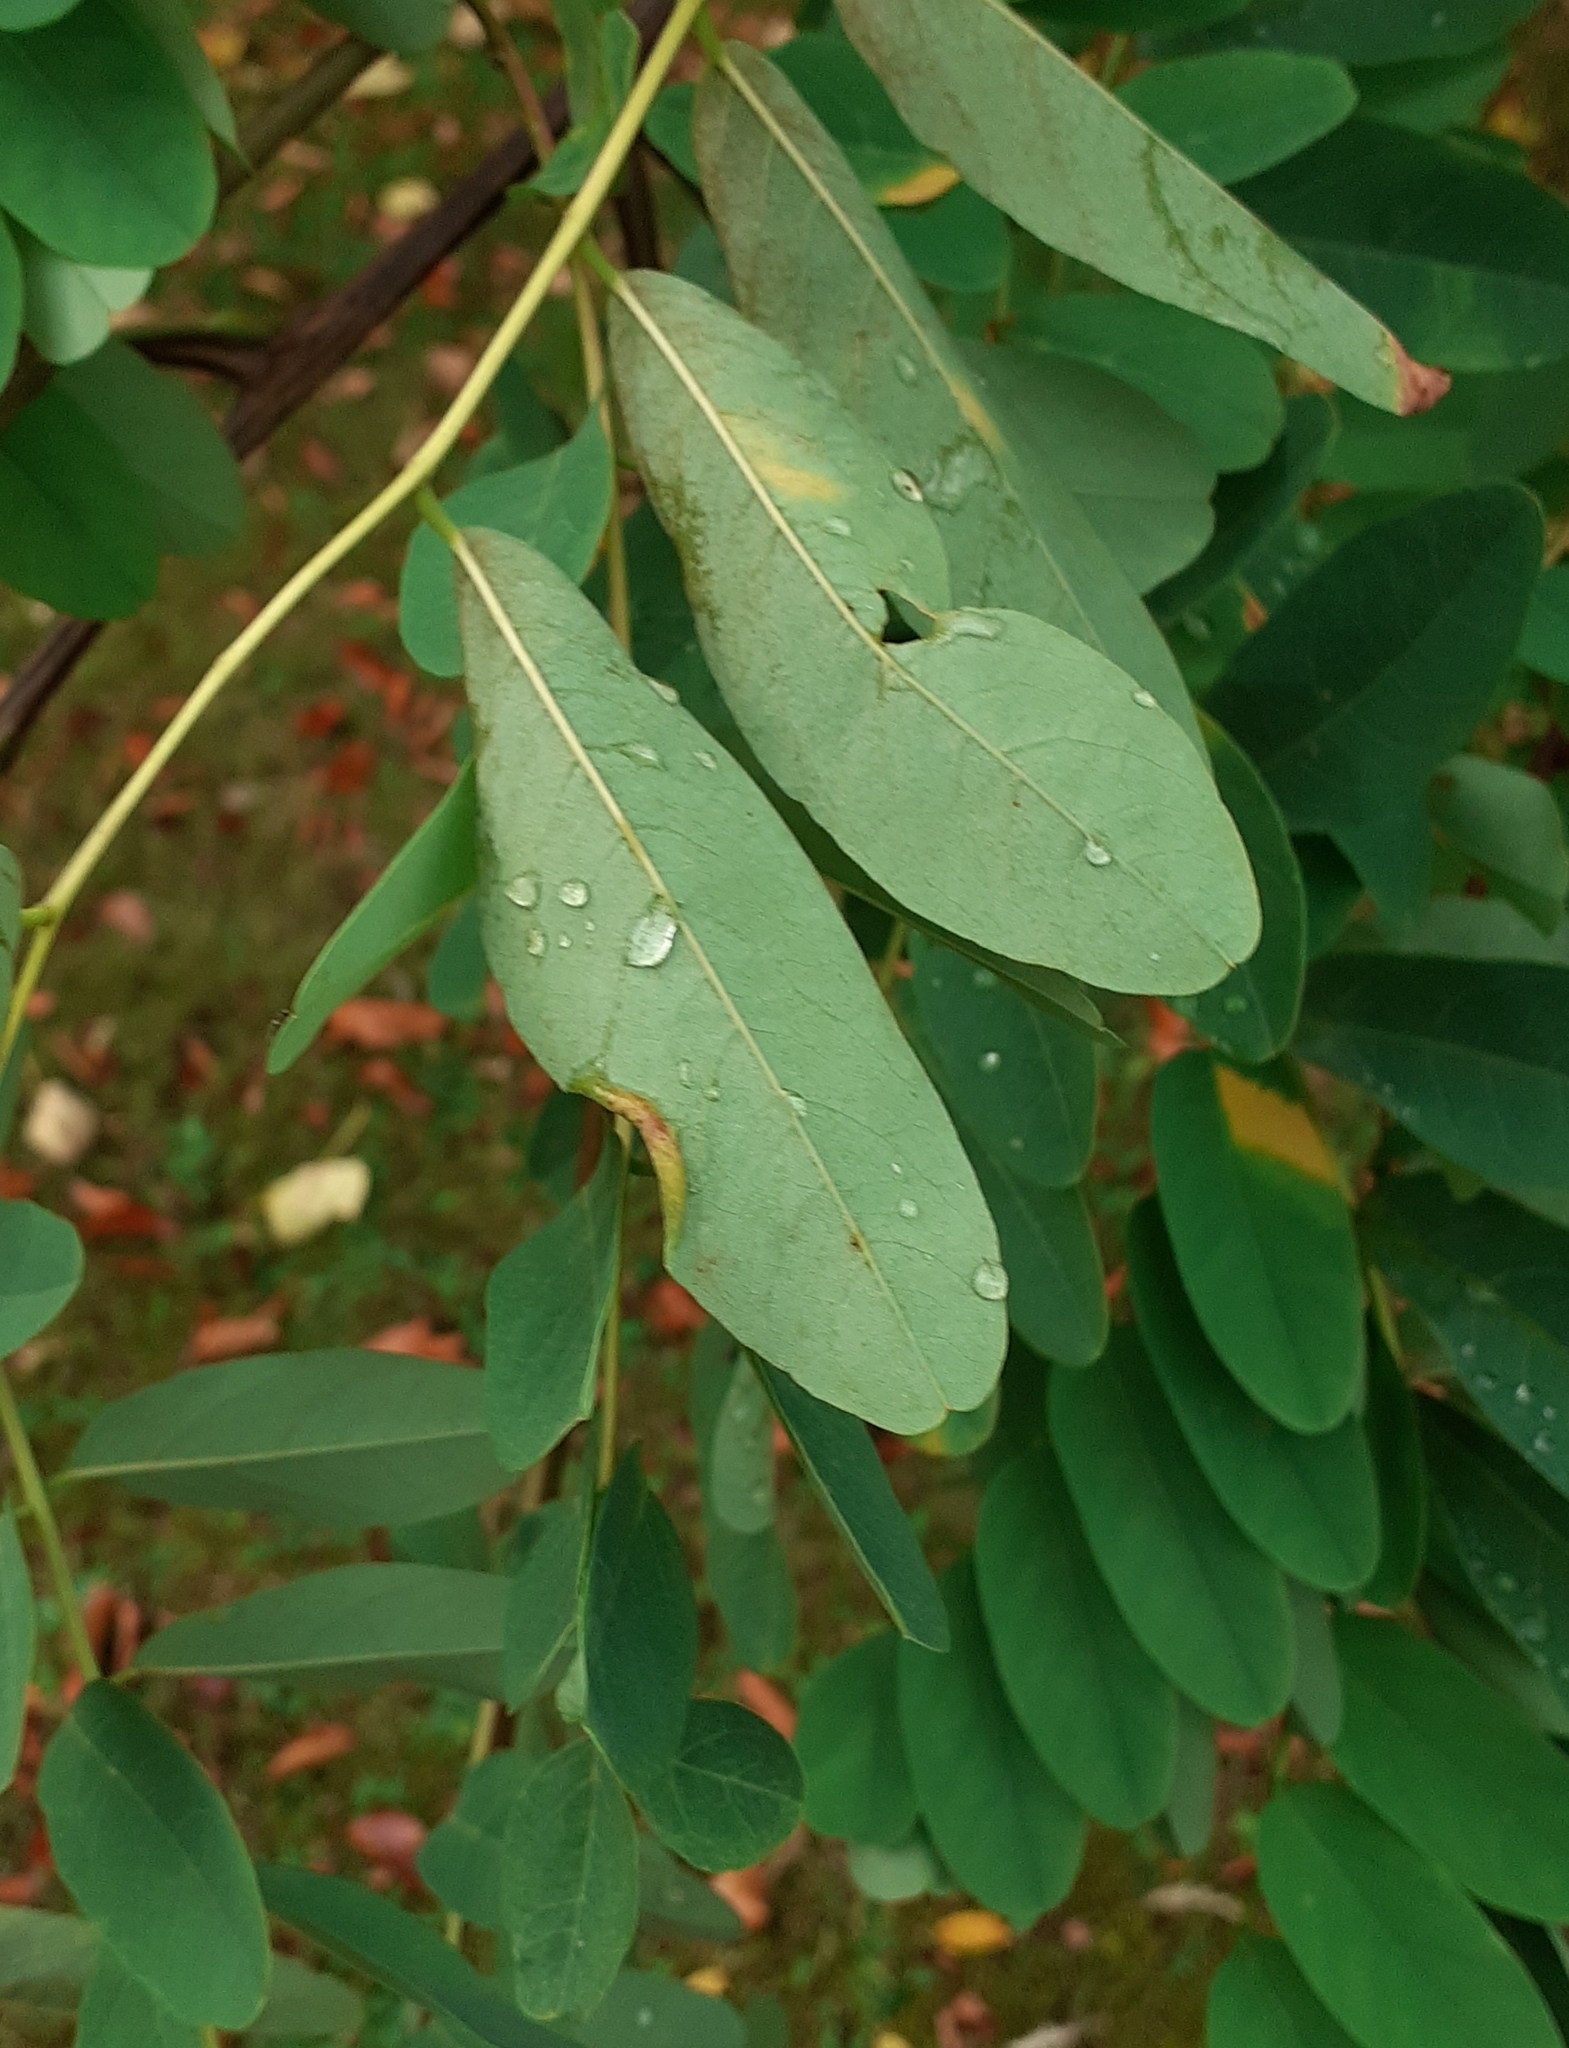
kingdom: Animalia
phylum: Arthropoda
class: Insecta
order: Diptera
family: Cecidomyiidae
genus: Obolodiplosis
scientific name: Obolodiplosis robiniae
